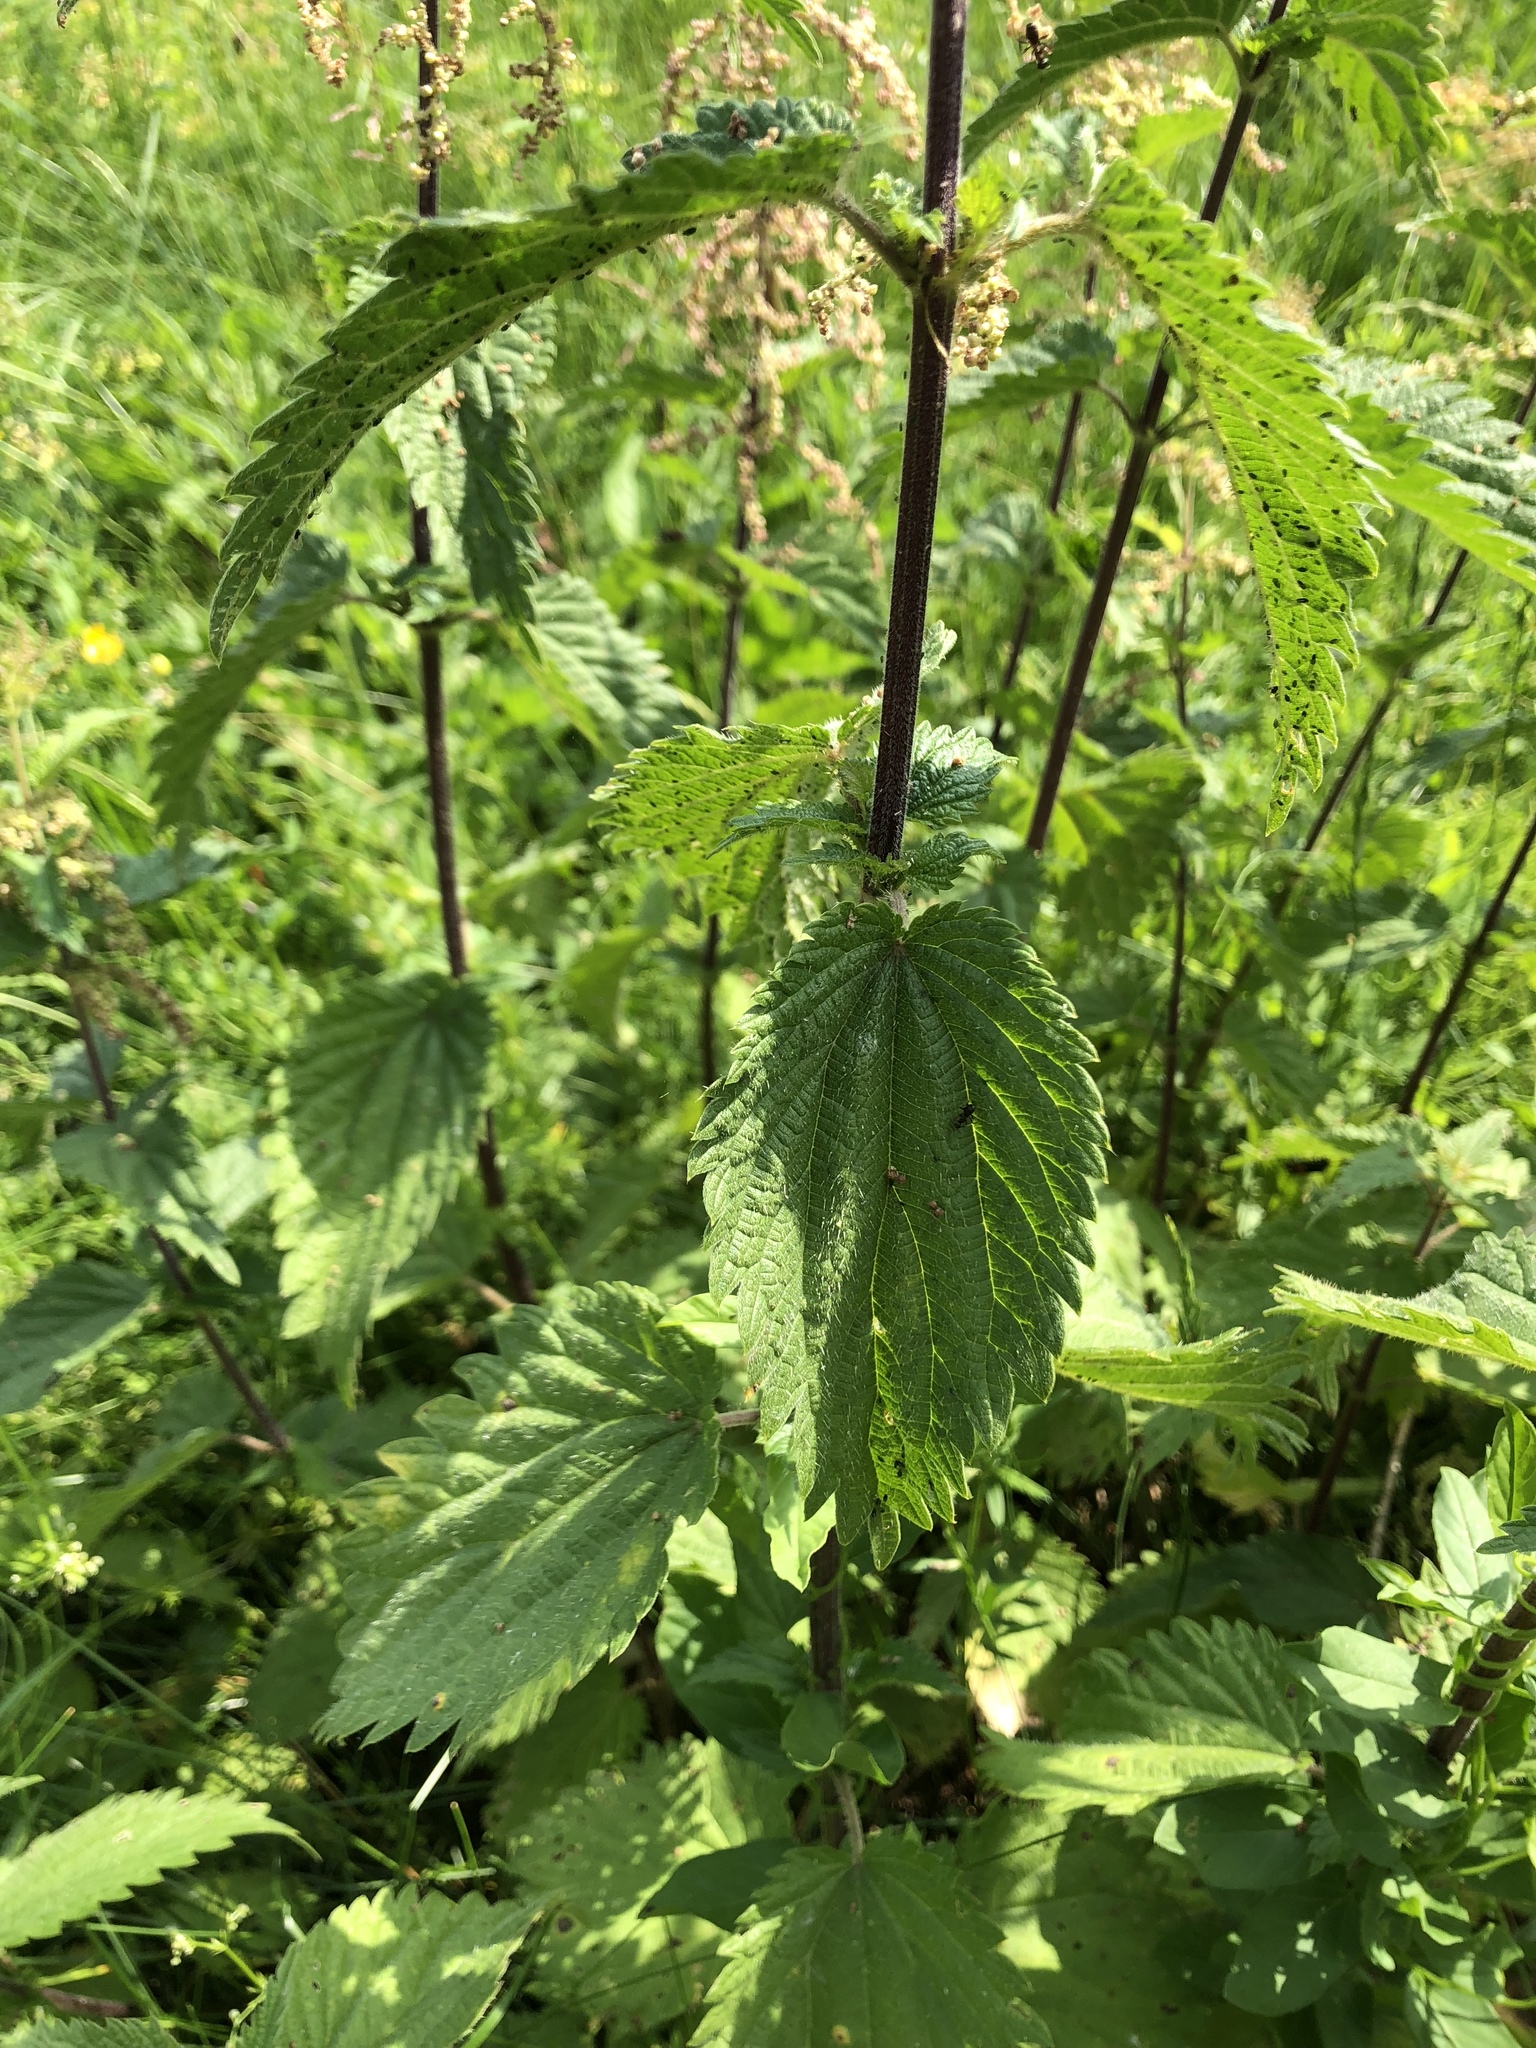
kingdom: Plantae
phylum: Tracheophyta
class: Magnoliopsida
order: Rosales
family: Urticaceae
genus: Urtica
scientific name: Urtica dioica
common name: Common nettle
